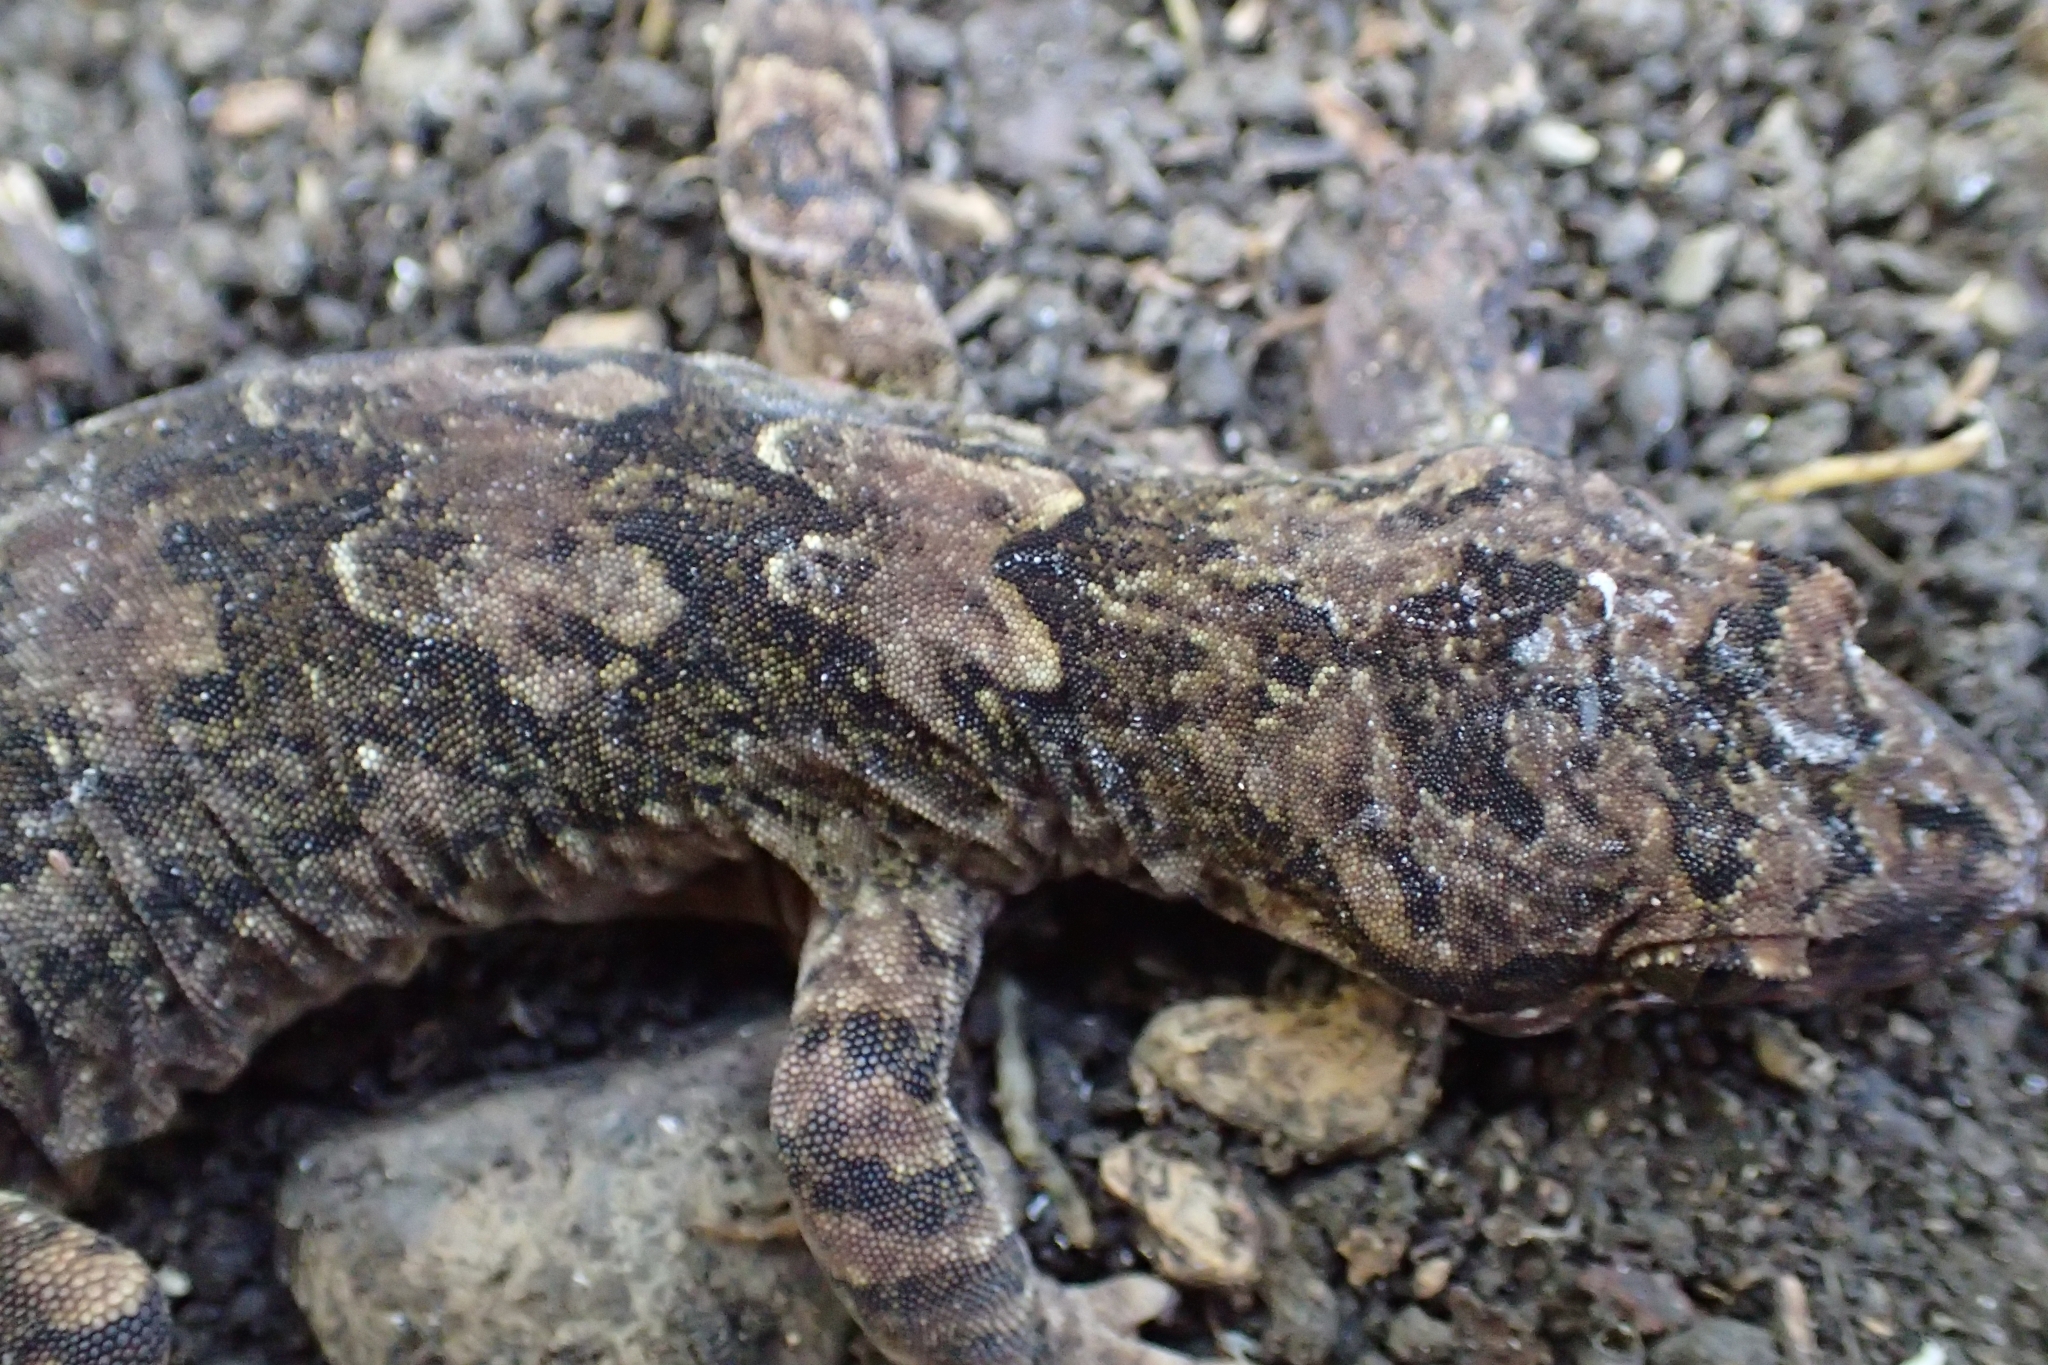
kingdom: Animalia
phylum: Chordata
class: Squamata
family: Diplodactylidae
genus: Dactylocnemis
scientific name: Dactylocnemis pacificus
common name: Pacific gecko
